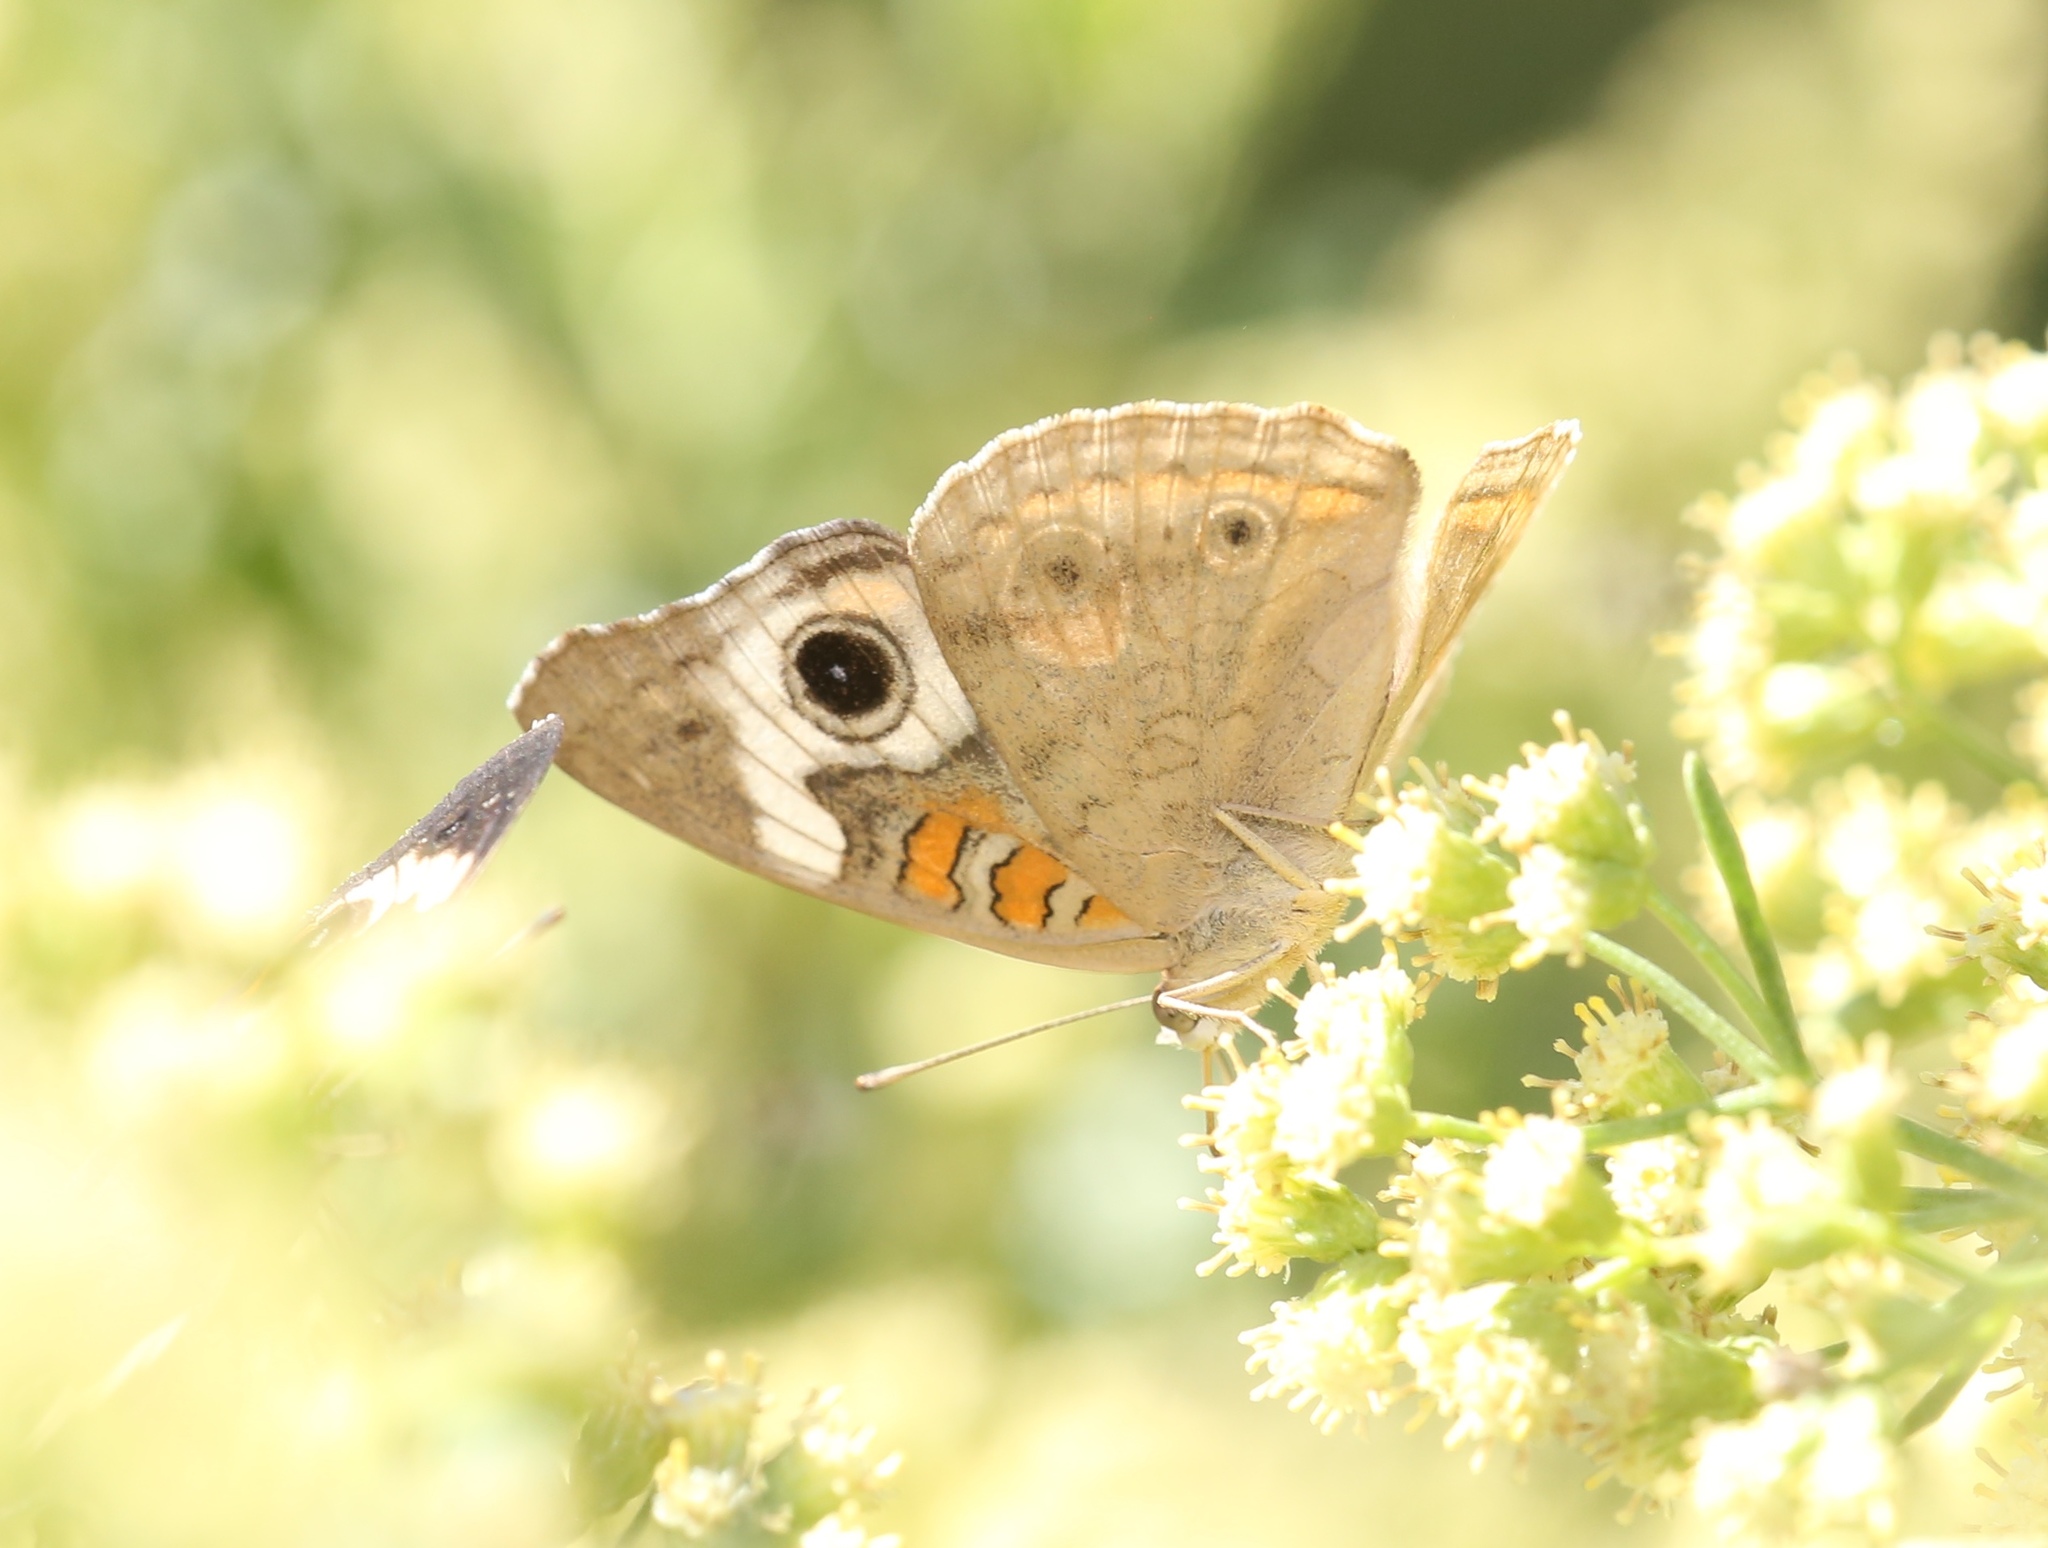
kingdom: Animalia
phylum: Arthropoda
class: Insecta
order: Lepidoptera
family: Nymphalidae
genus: Junonia
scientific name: Junonia coenia
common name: Common buckeye
